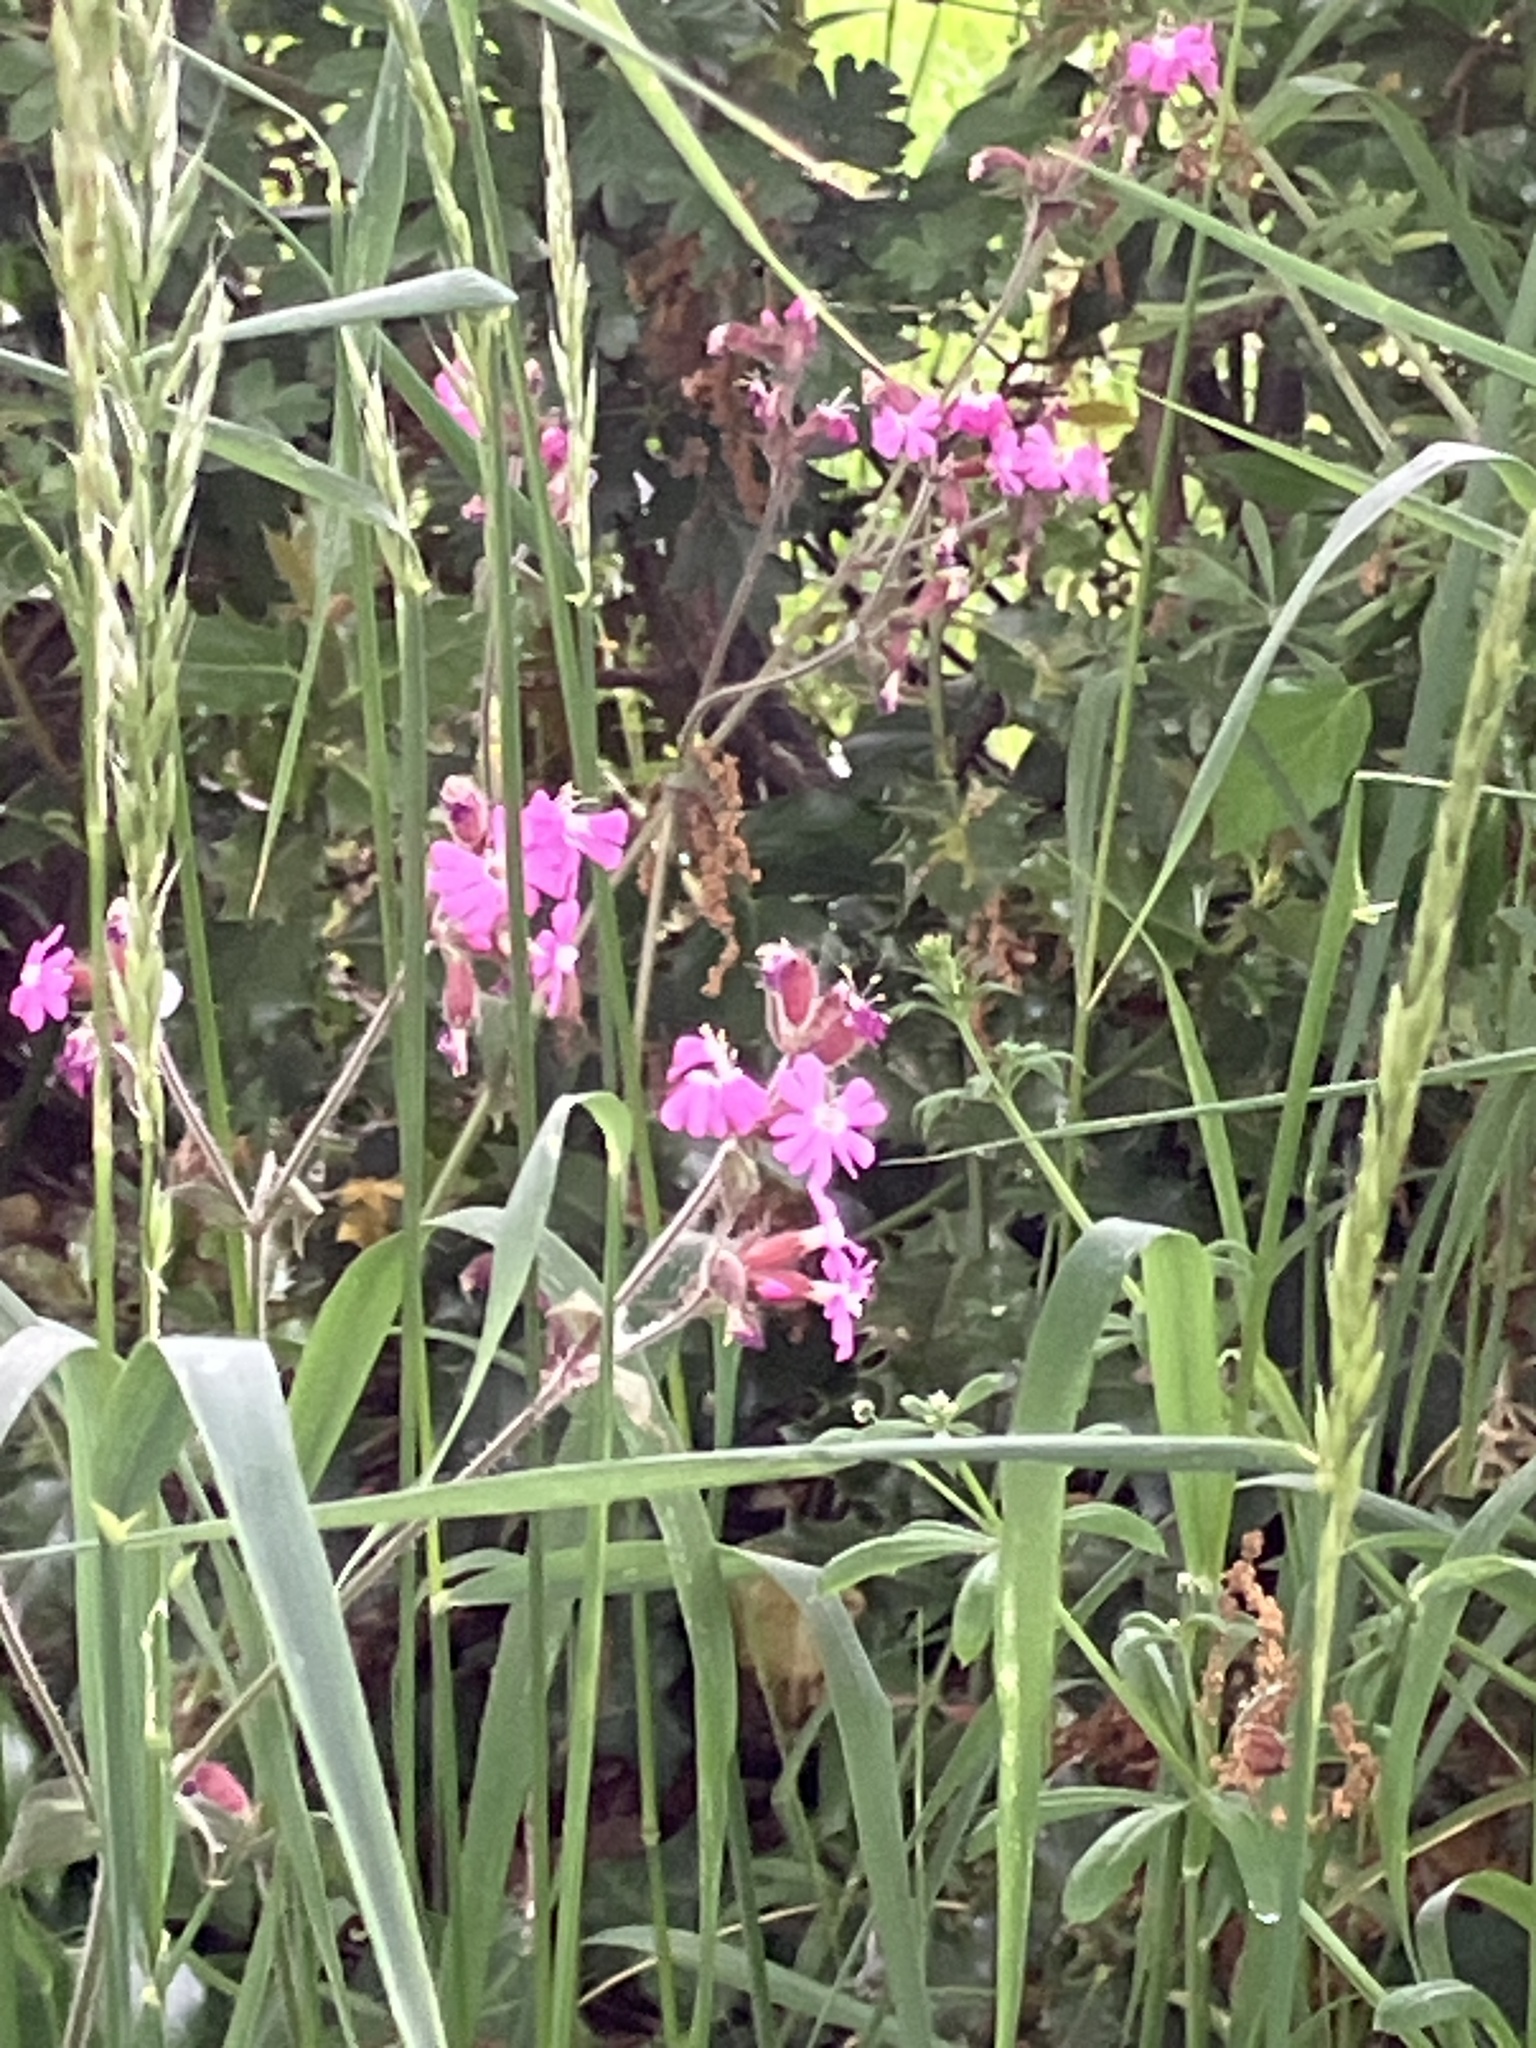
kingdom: Plantae
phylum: Tracheophyta
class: Magnoliopsida
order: Caryophyllales
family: Caryophyllaceae
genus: Silene
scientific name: Silene dioica
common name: Red campion
